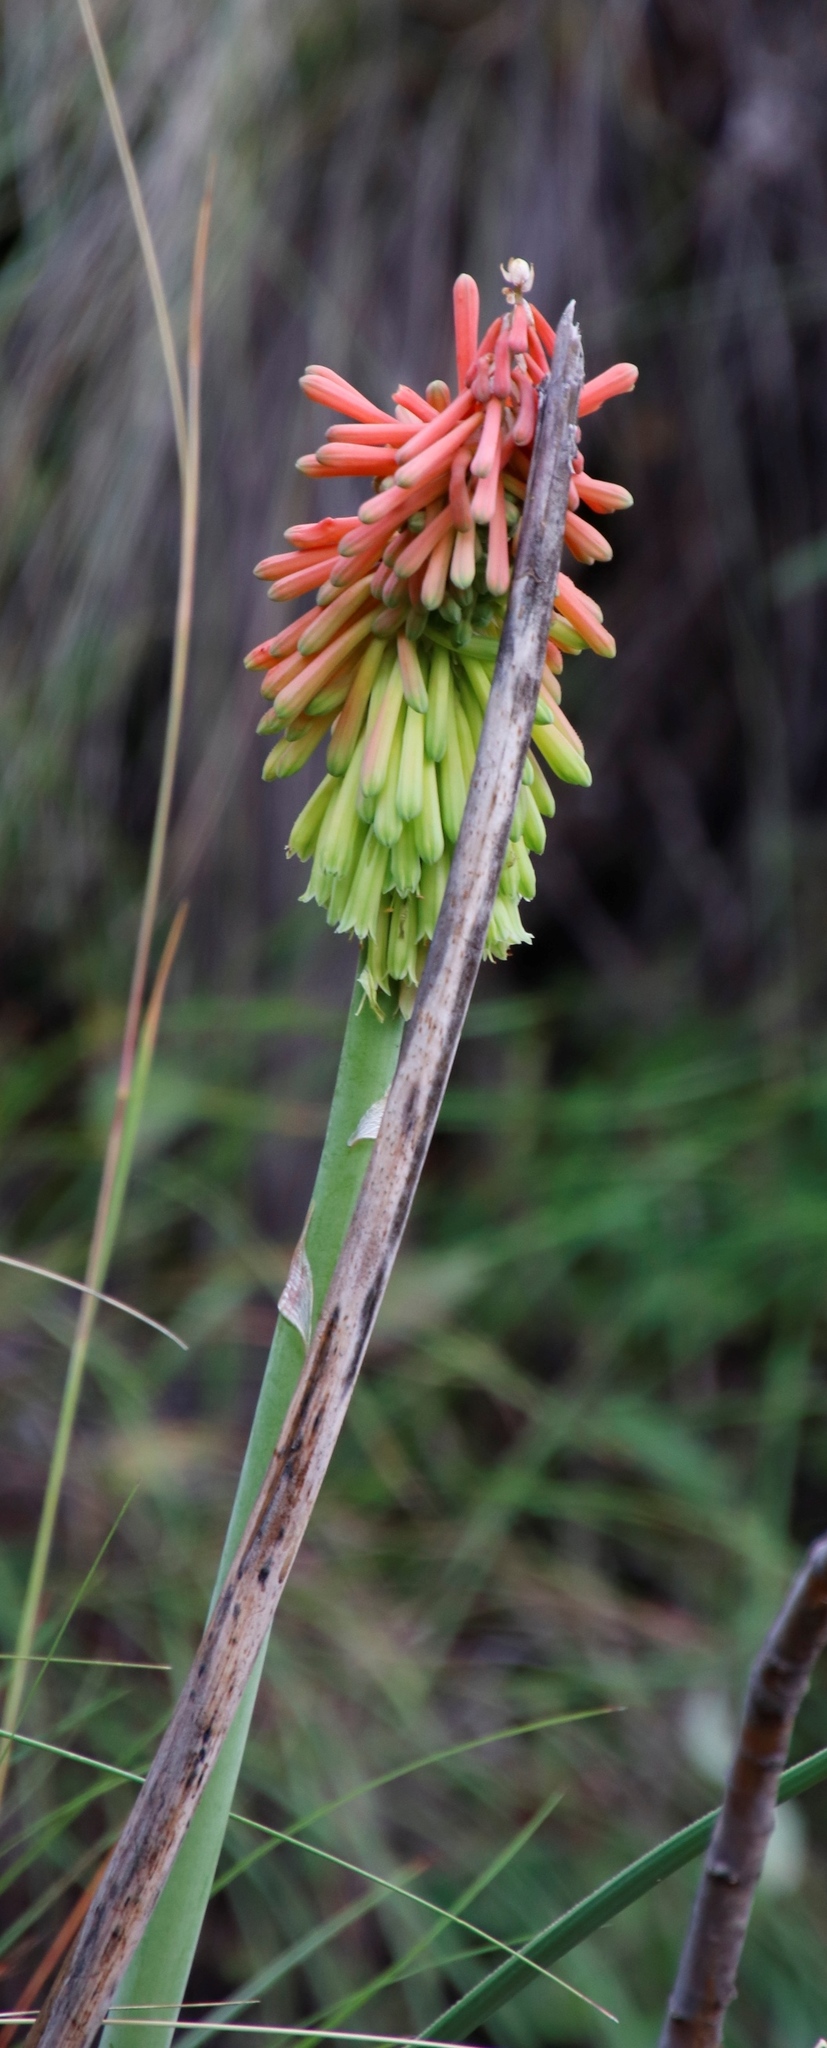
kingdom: Plantae
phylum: Tracheophyta
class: Liliopsida
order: Asparagales
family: Asphodelaceae
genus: Kniphofia
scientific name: Kniphofia stricta
